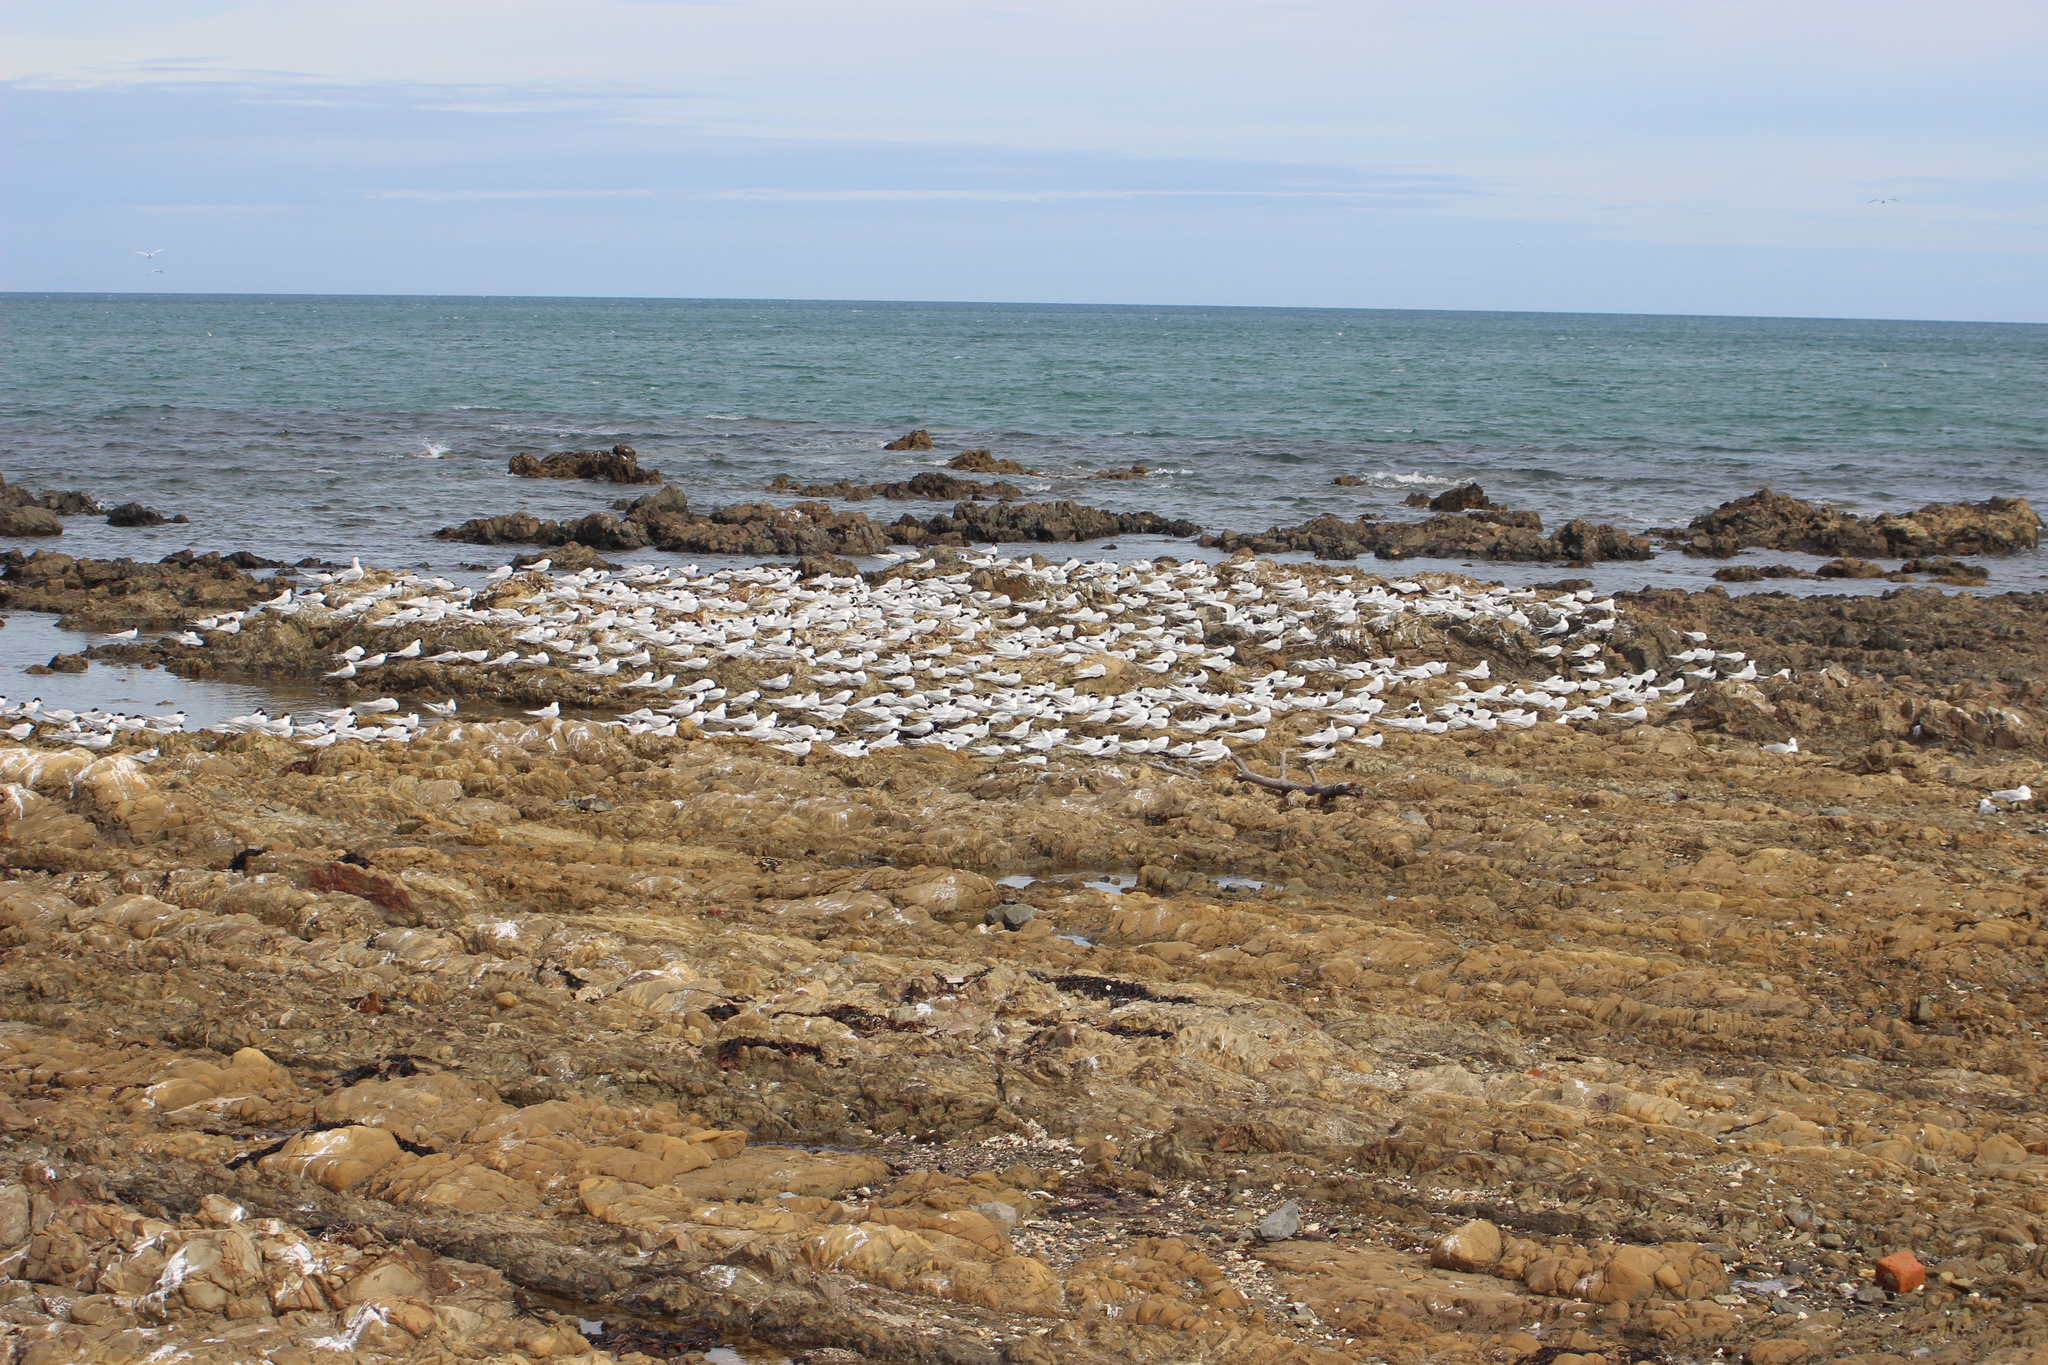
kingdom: Animalia
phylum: Chordata
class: Aves
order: Charadriiformes
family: Laridae
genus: Sterna
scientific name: Sterna striata
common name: White-fronted tern
